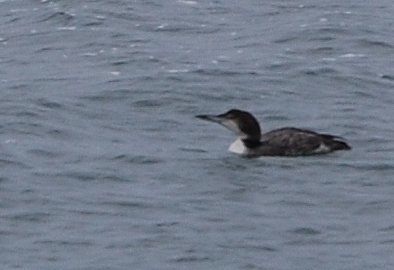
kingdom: Animalia
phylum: Chordata
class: Aves
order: Gaviiformes
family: Gaviidae
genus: Gavia
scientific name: Gavia immer
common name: Common loon
